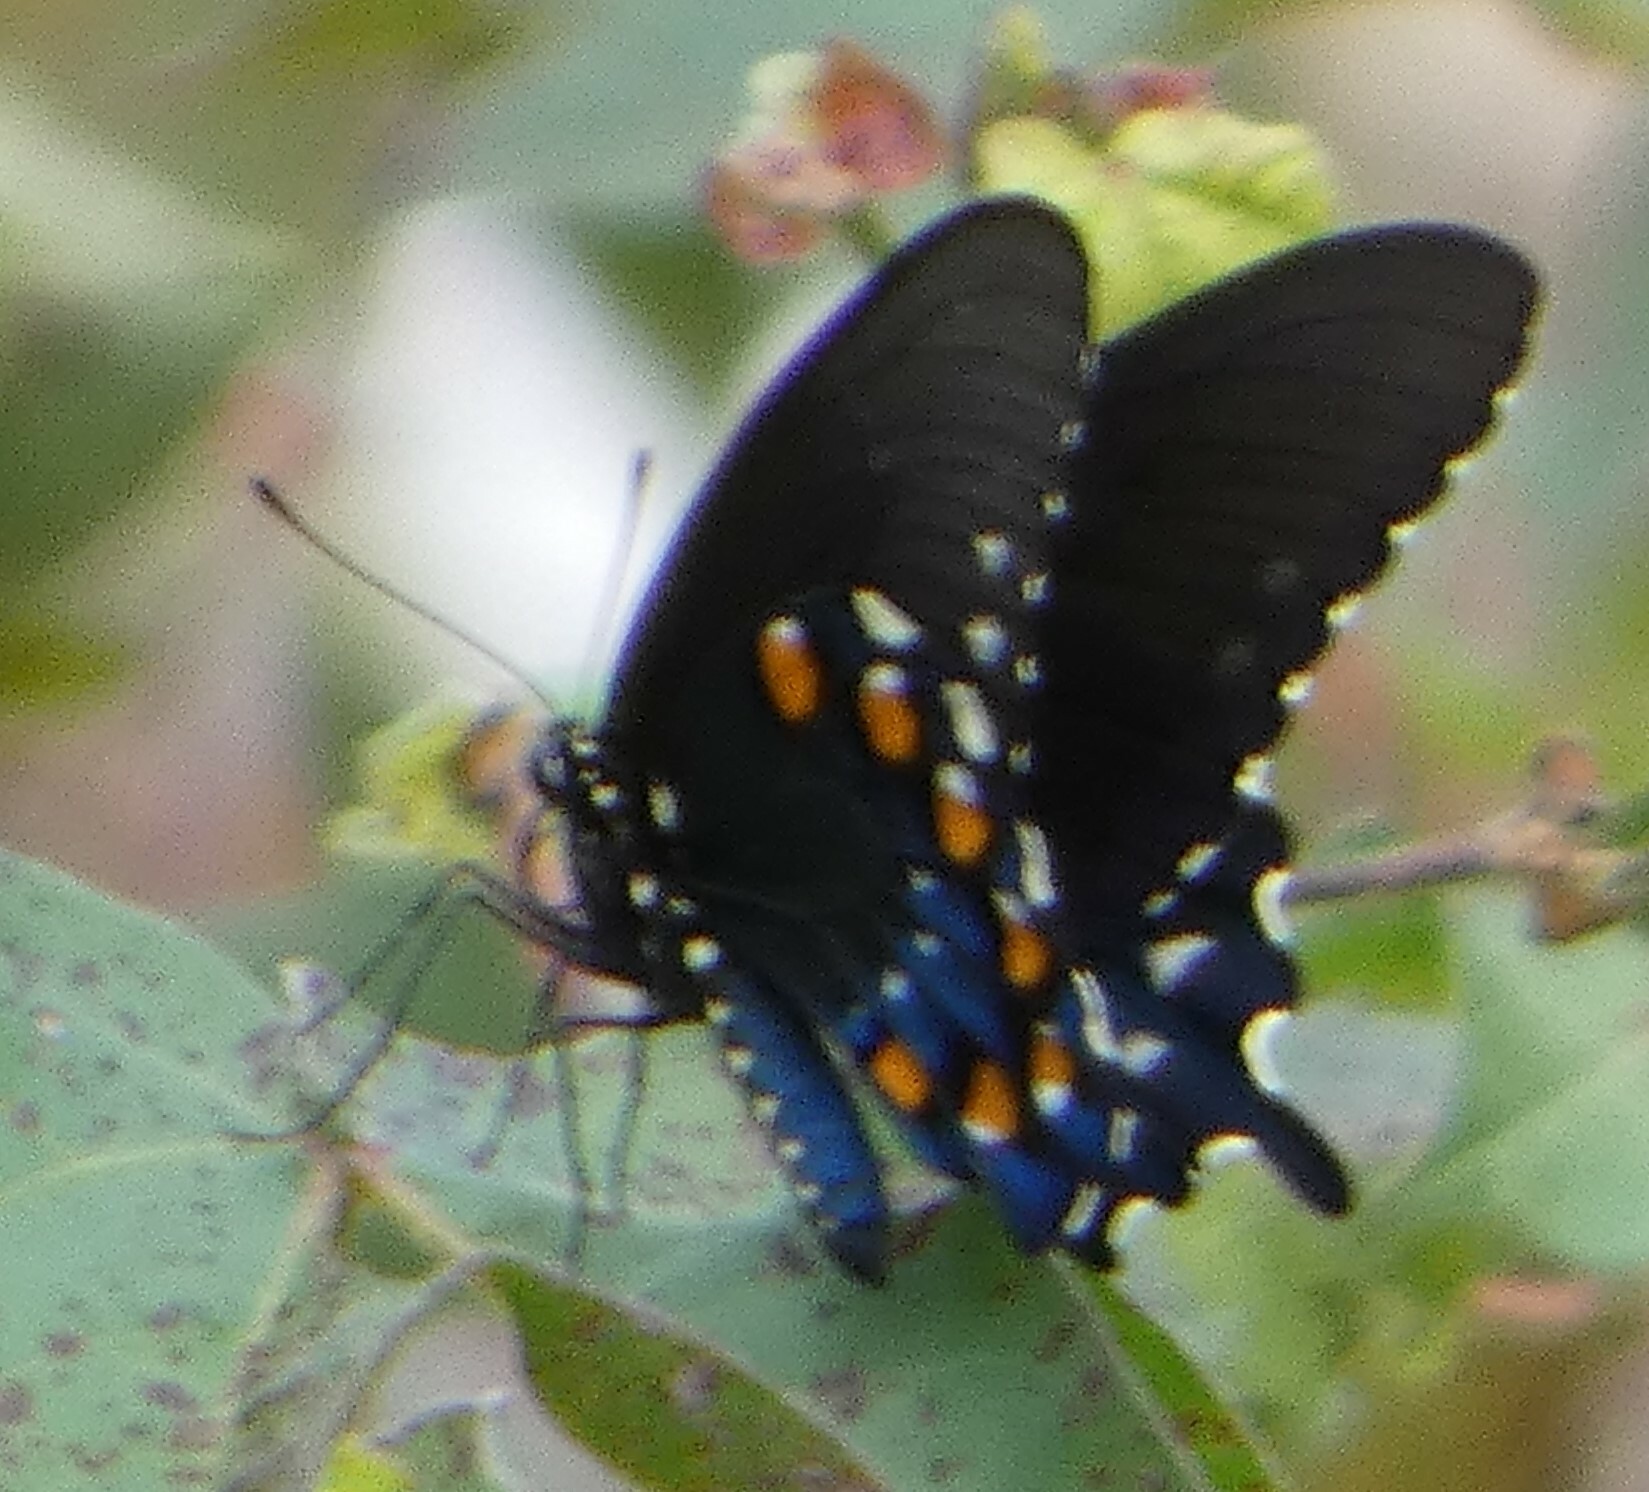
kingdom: Animalia
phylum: Arthropoda
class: Insecta
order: Lepidoptera
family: Papilionidae
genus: Battus
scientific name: Battus philenor
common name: Pipevine swallowtail
